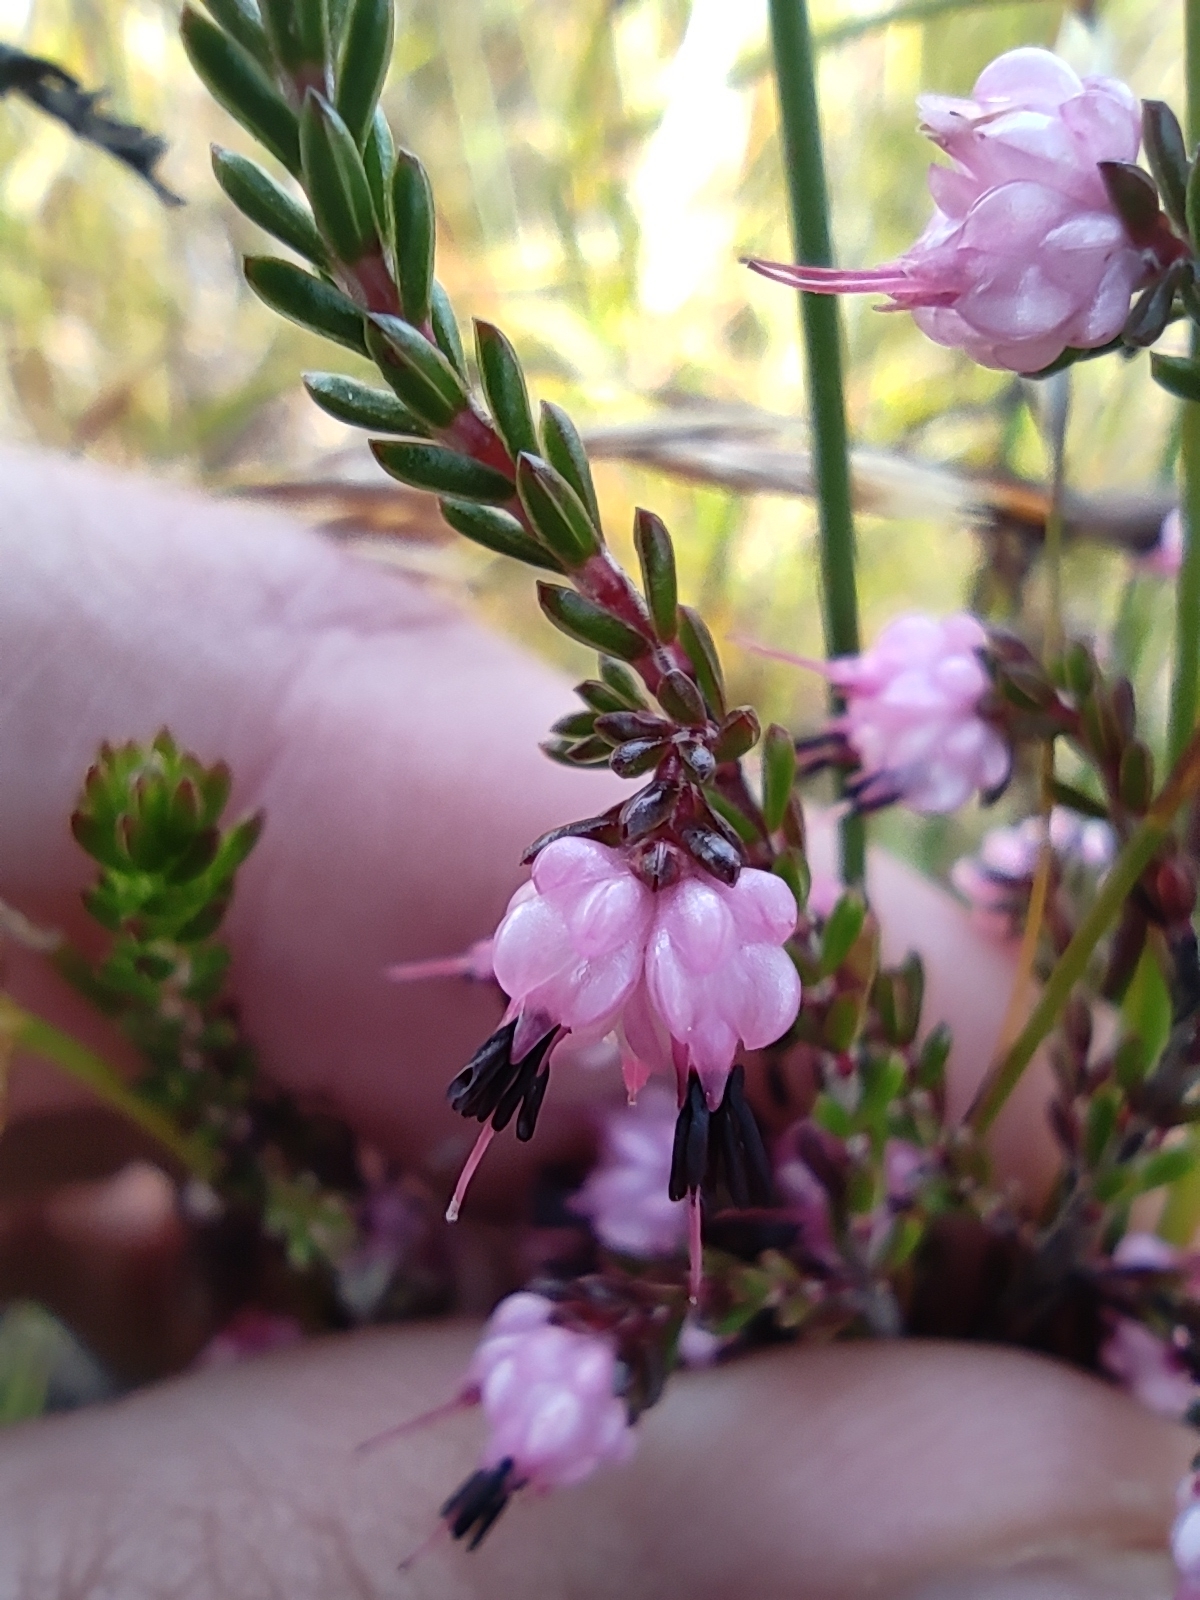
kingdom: Plantae
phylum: Tracheophyta
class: Magnoliopsida
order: Ericales
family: Ericaceae
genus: Erica
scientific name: Erica amphigena
